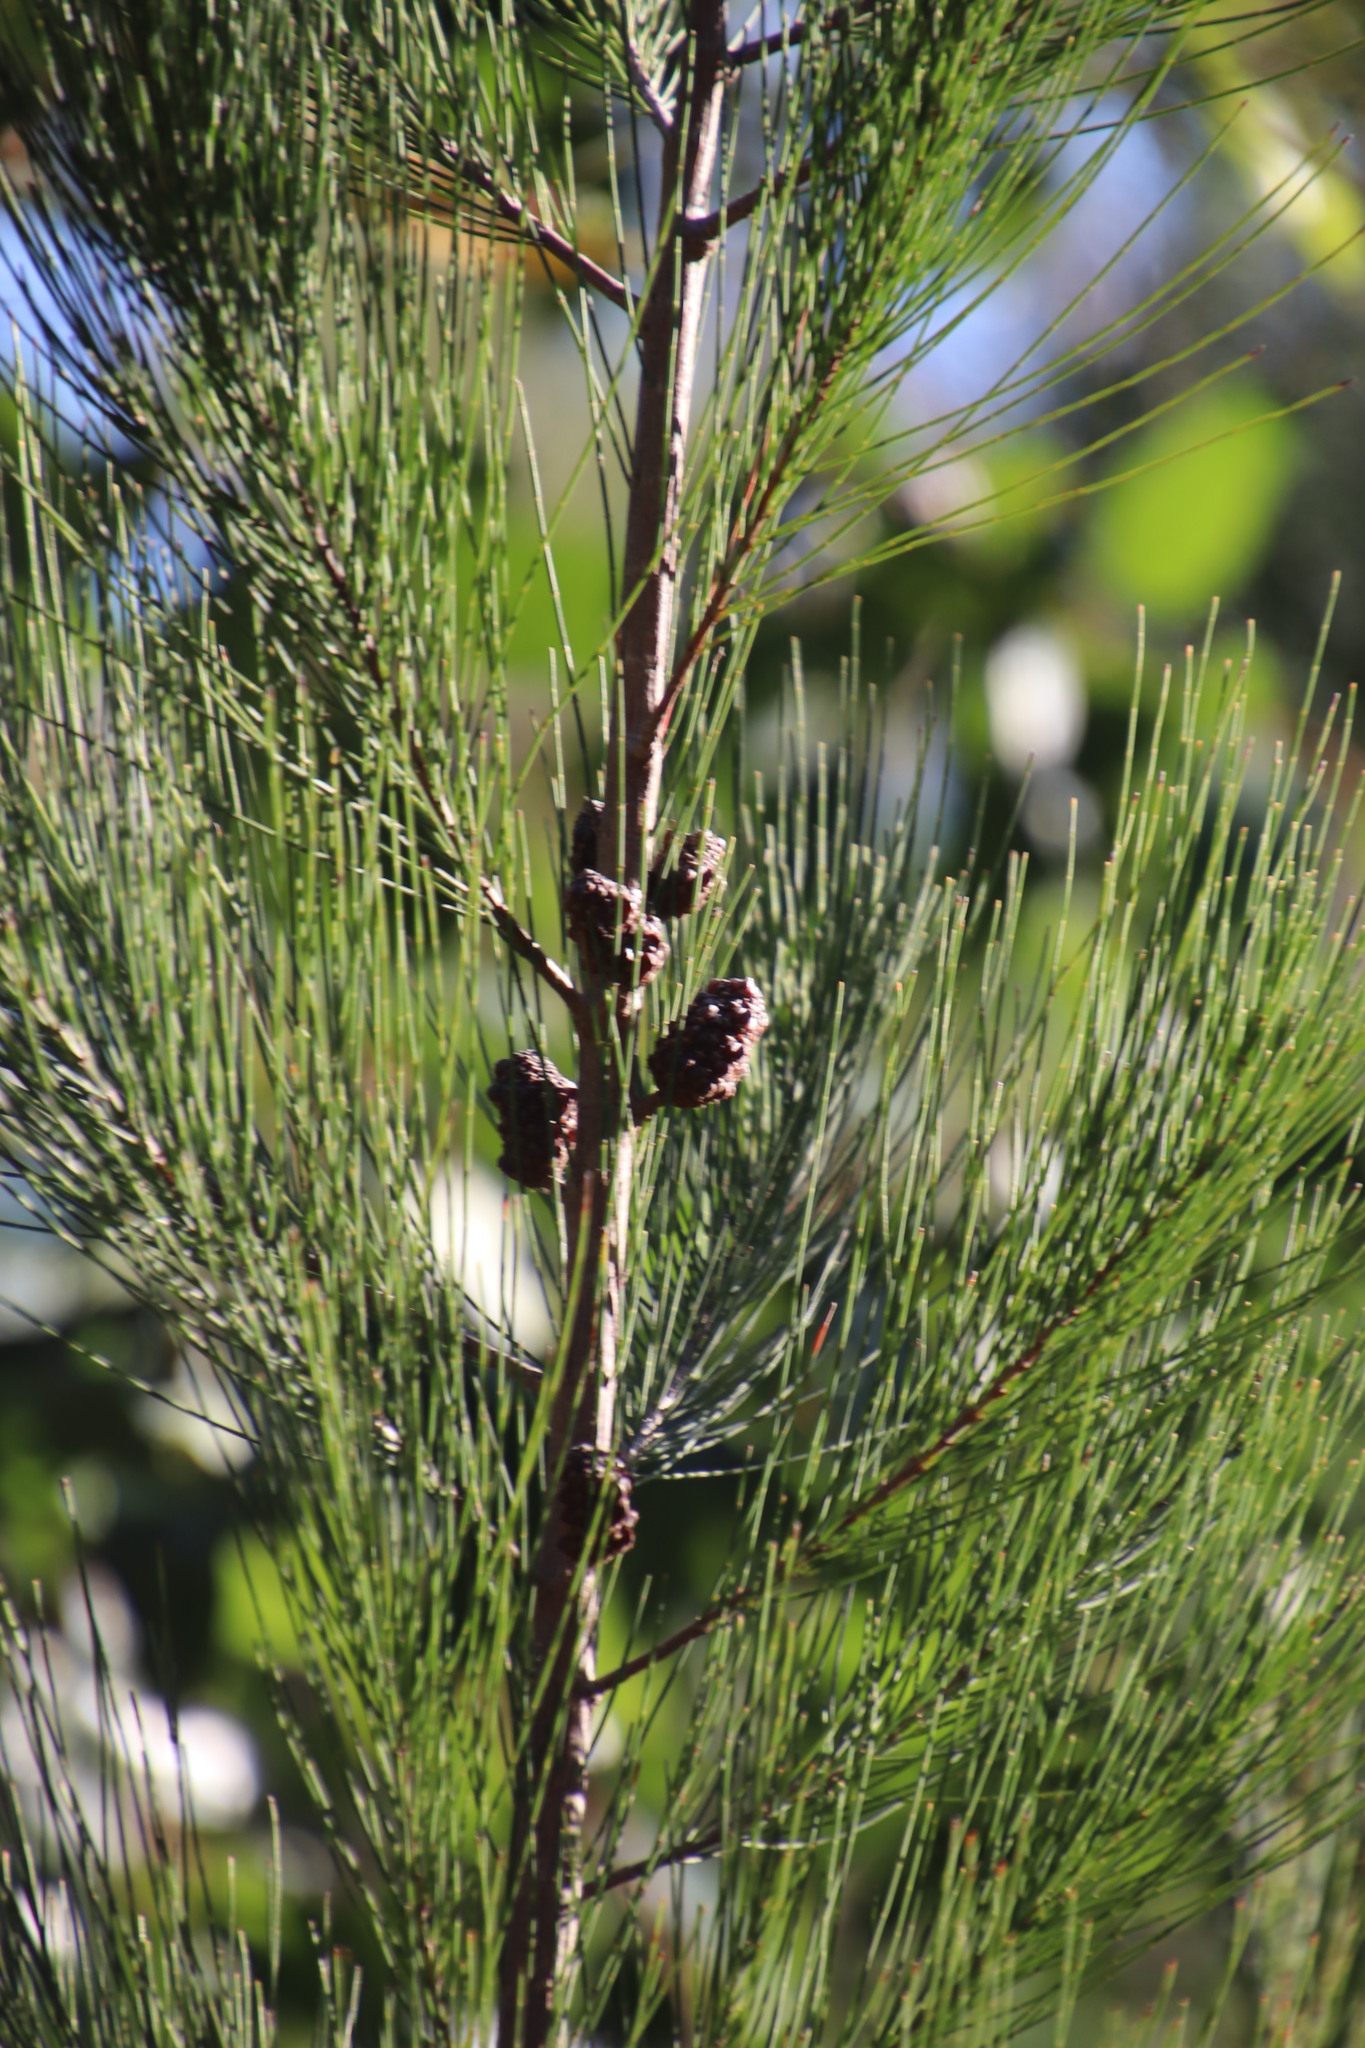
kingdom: Plantae
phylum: Tracheophyta
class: Magnoliopsida
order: Fagales
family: Casuarinaceae
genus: Allocasuarina
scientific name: Allocasuarina littoralis
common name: Black she-oak
